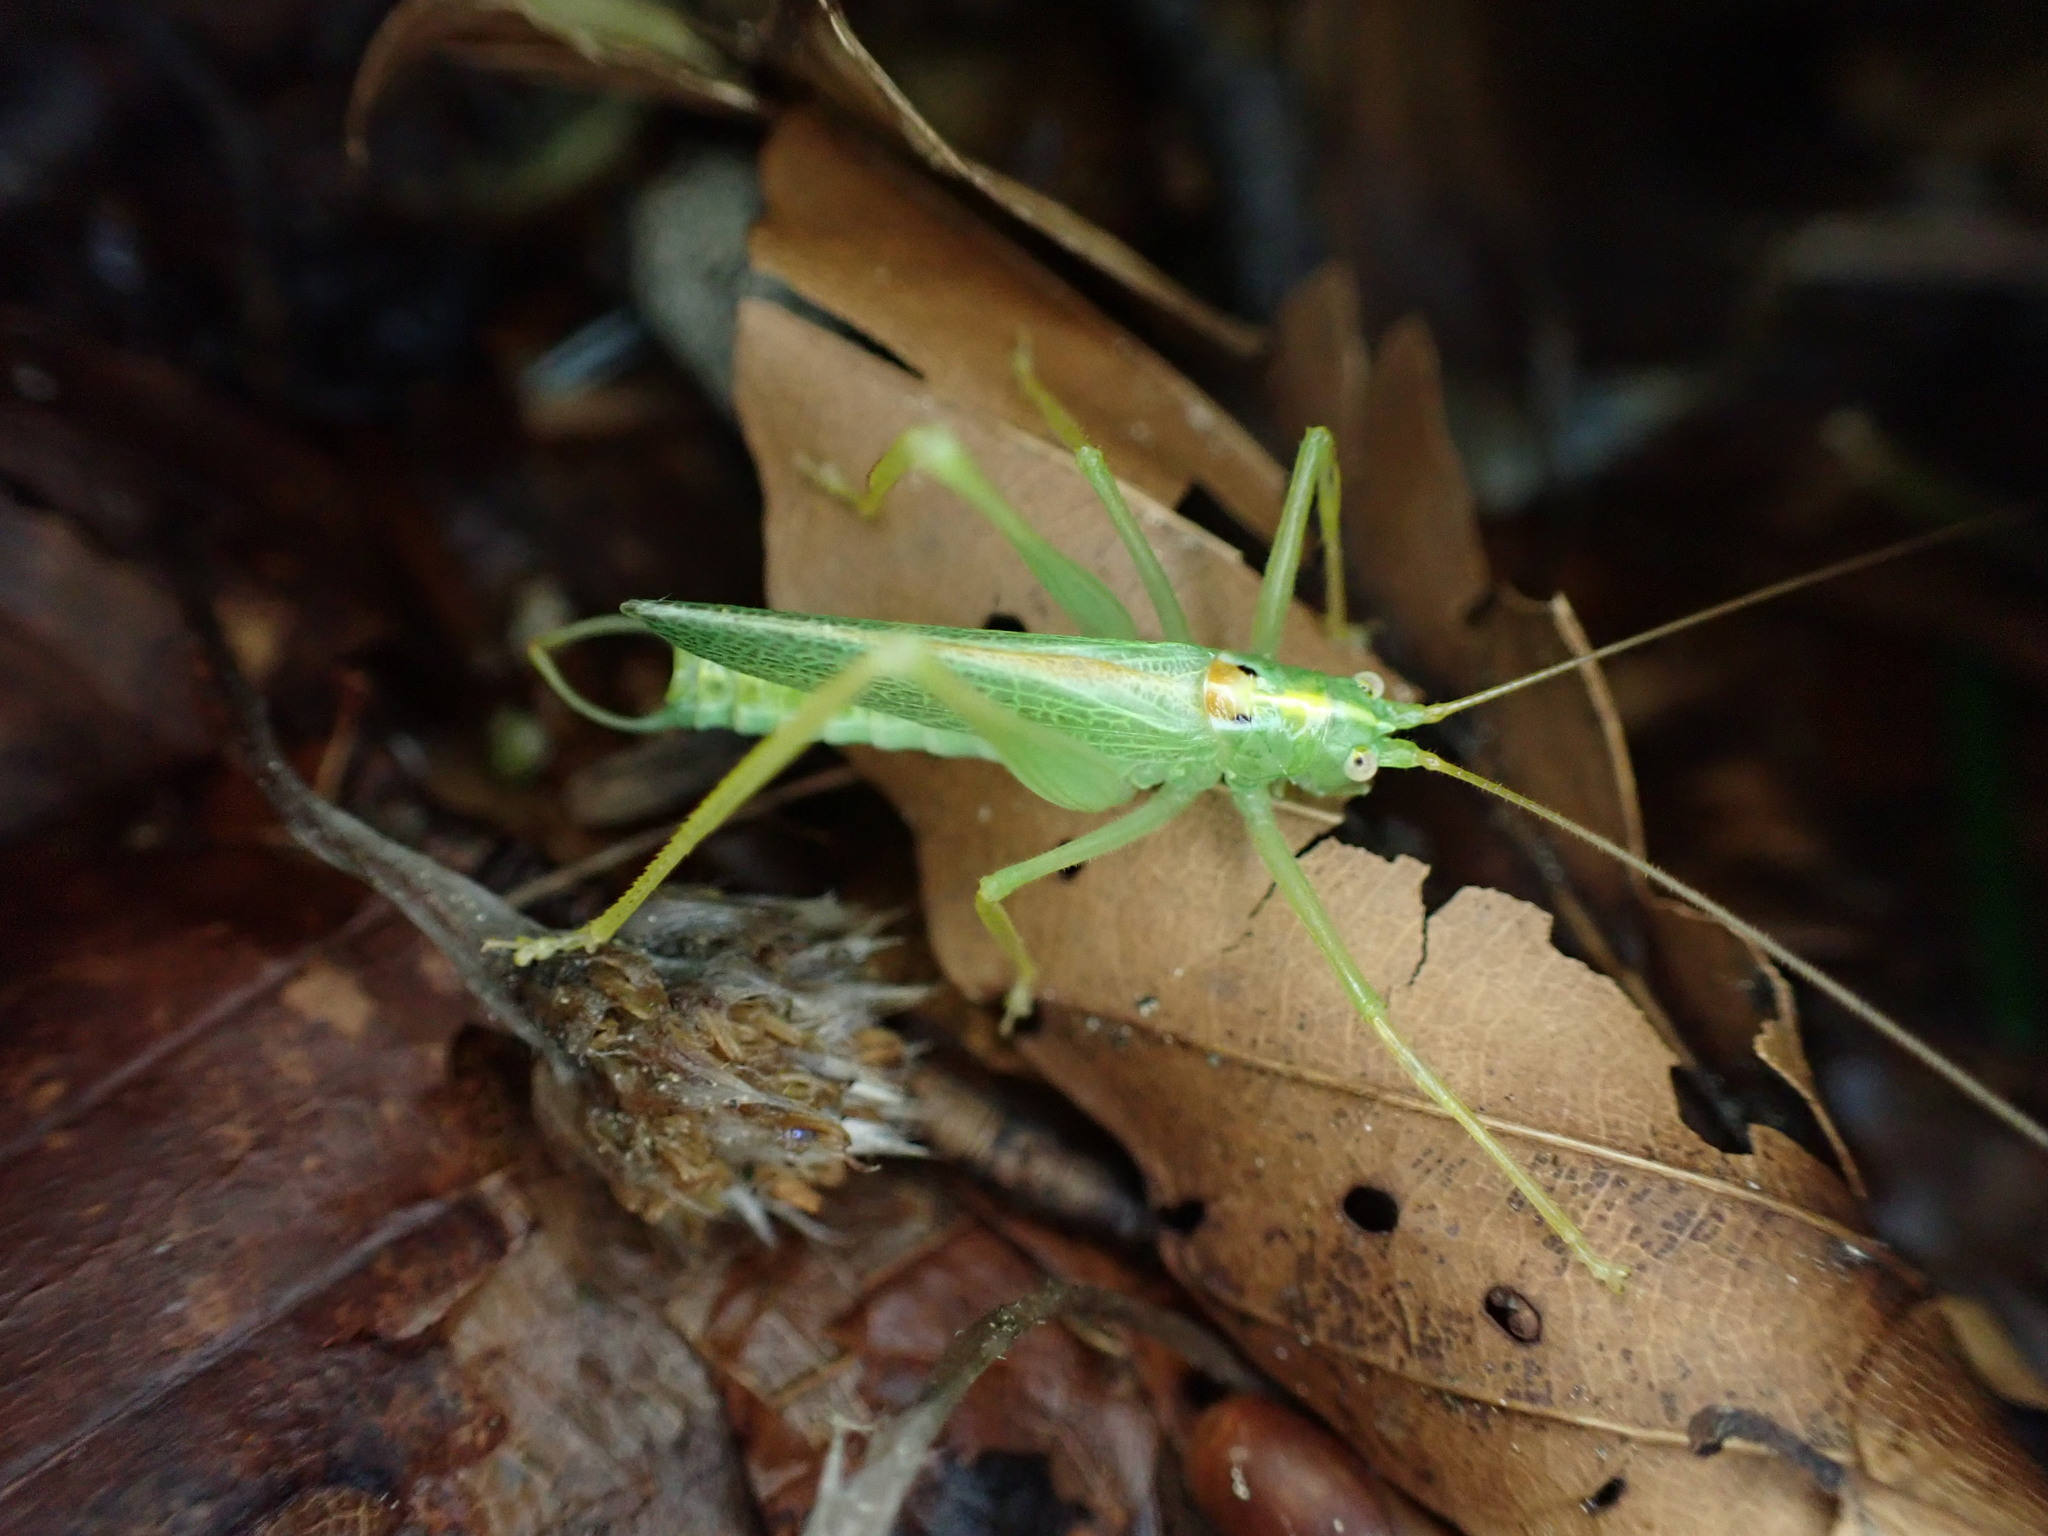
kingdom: Animalia
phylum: Arthropoda
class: Insecta
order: Orthoptera
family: Tettigoniidae
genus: Meconema
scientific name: Meconema thalassinum
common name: Oak bush-cricket
